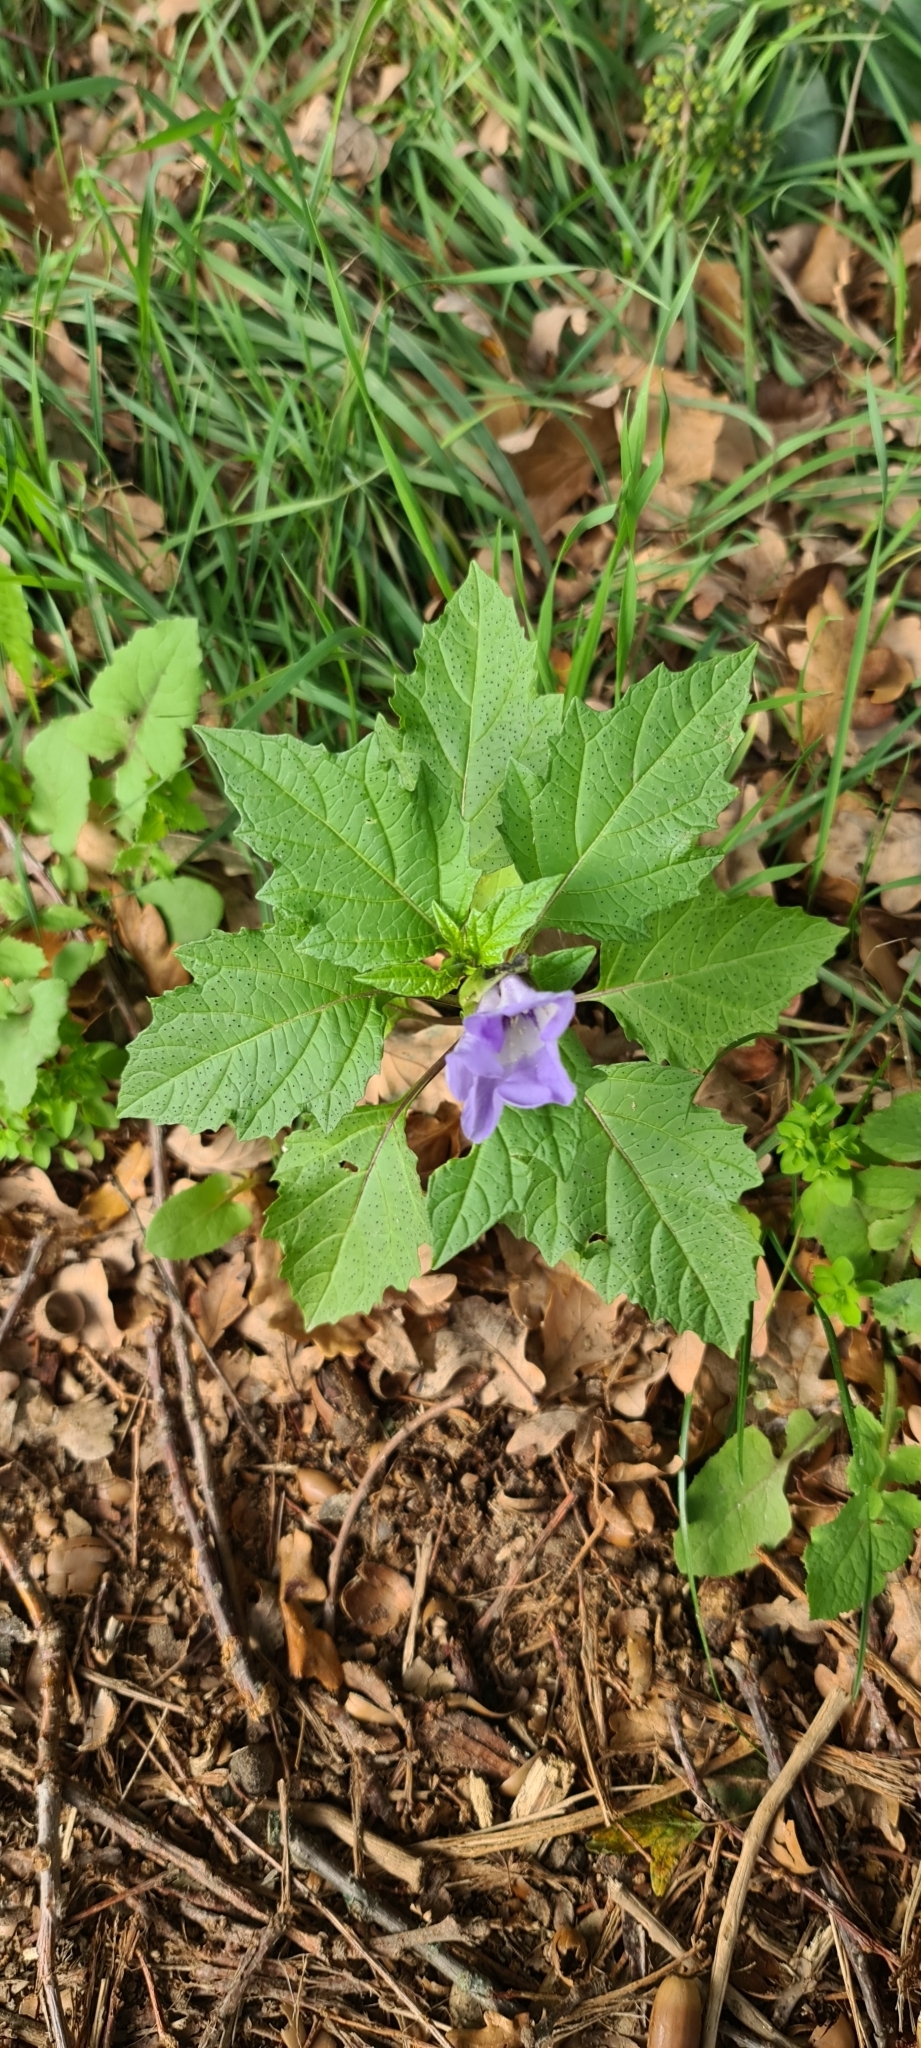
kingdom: Plantae
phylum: Tracheophyta
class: Magnoliopsida
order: Solanales
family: Solanaceae
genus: Nicandra
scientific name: Nicandra physalodes
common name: Apple-of-peru
